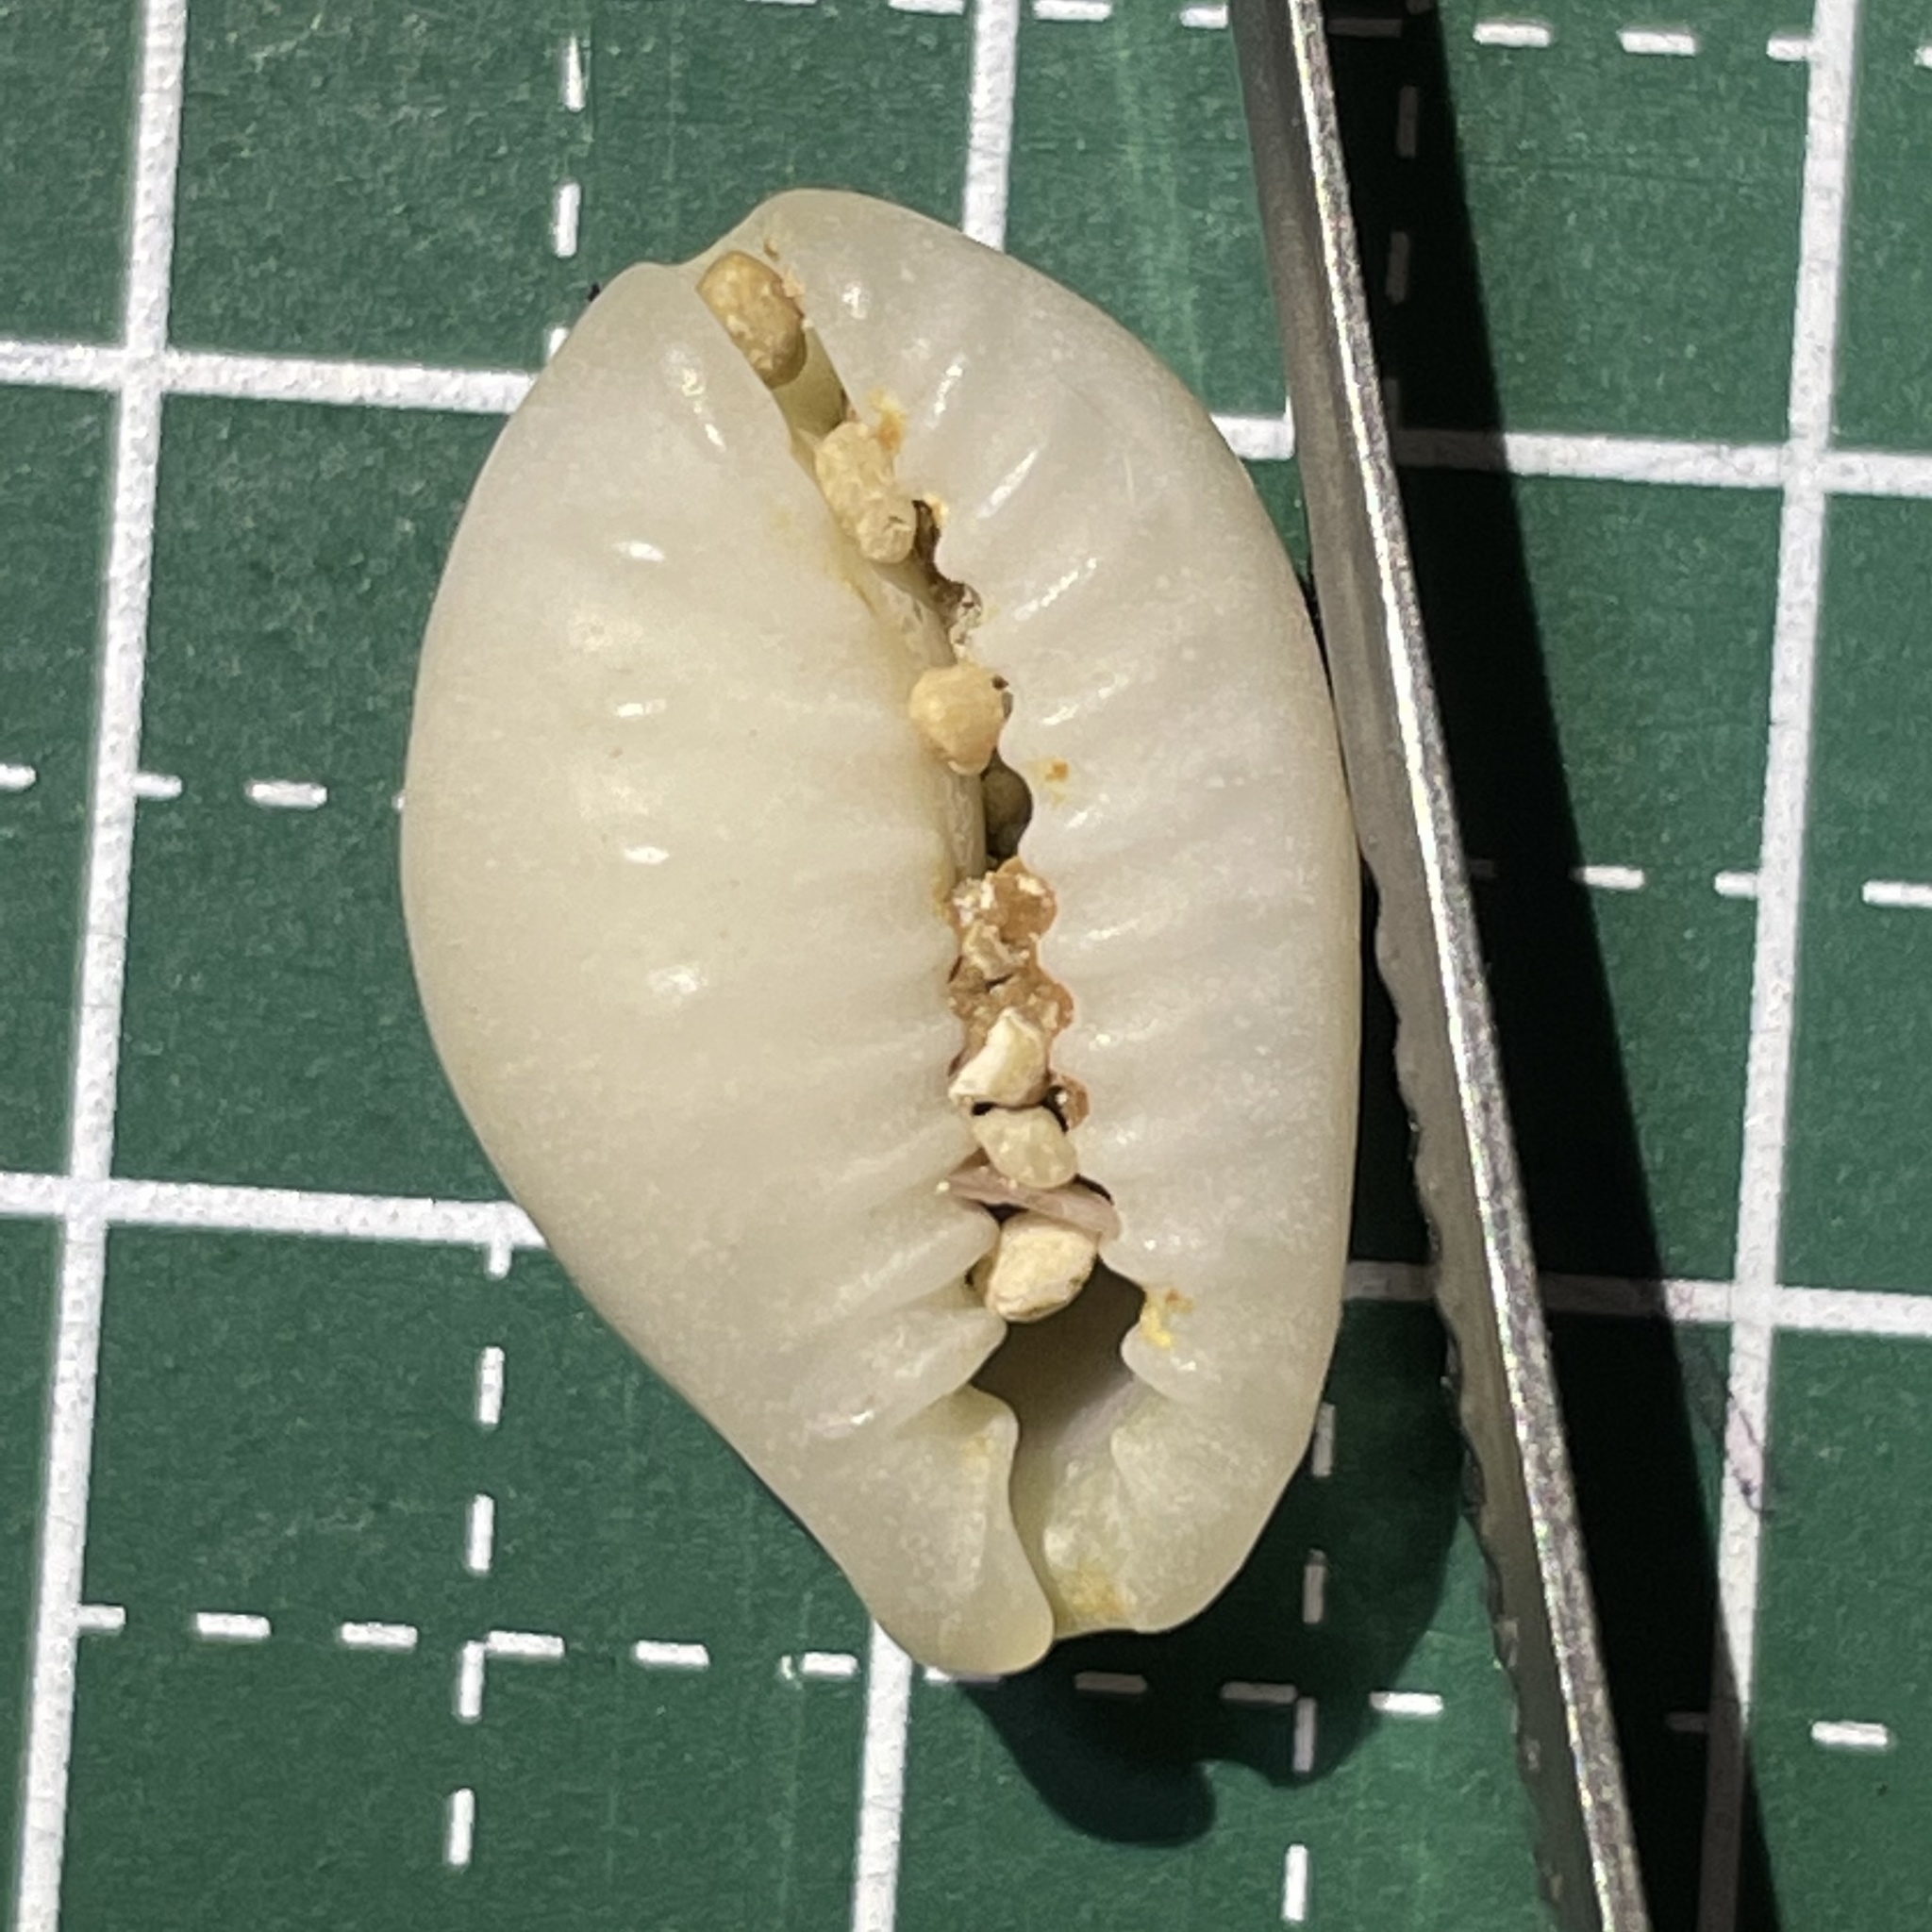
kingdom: Animalia
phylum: Mollusca
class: Gastropoda
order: Littorinimorpha
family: Cypraeidae
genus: Monetaria
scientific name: Monetaria annulus
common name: Ring cowrie
